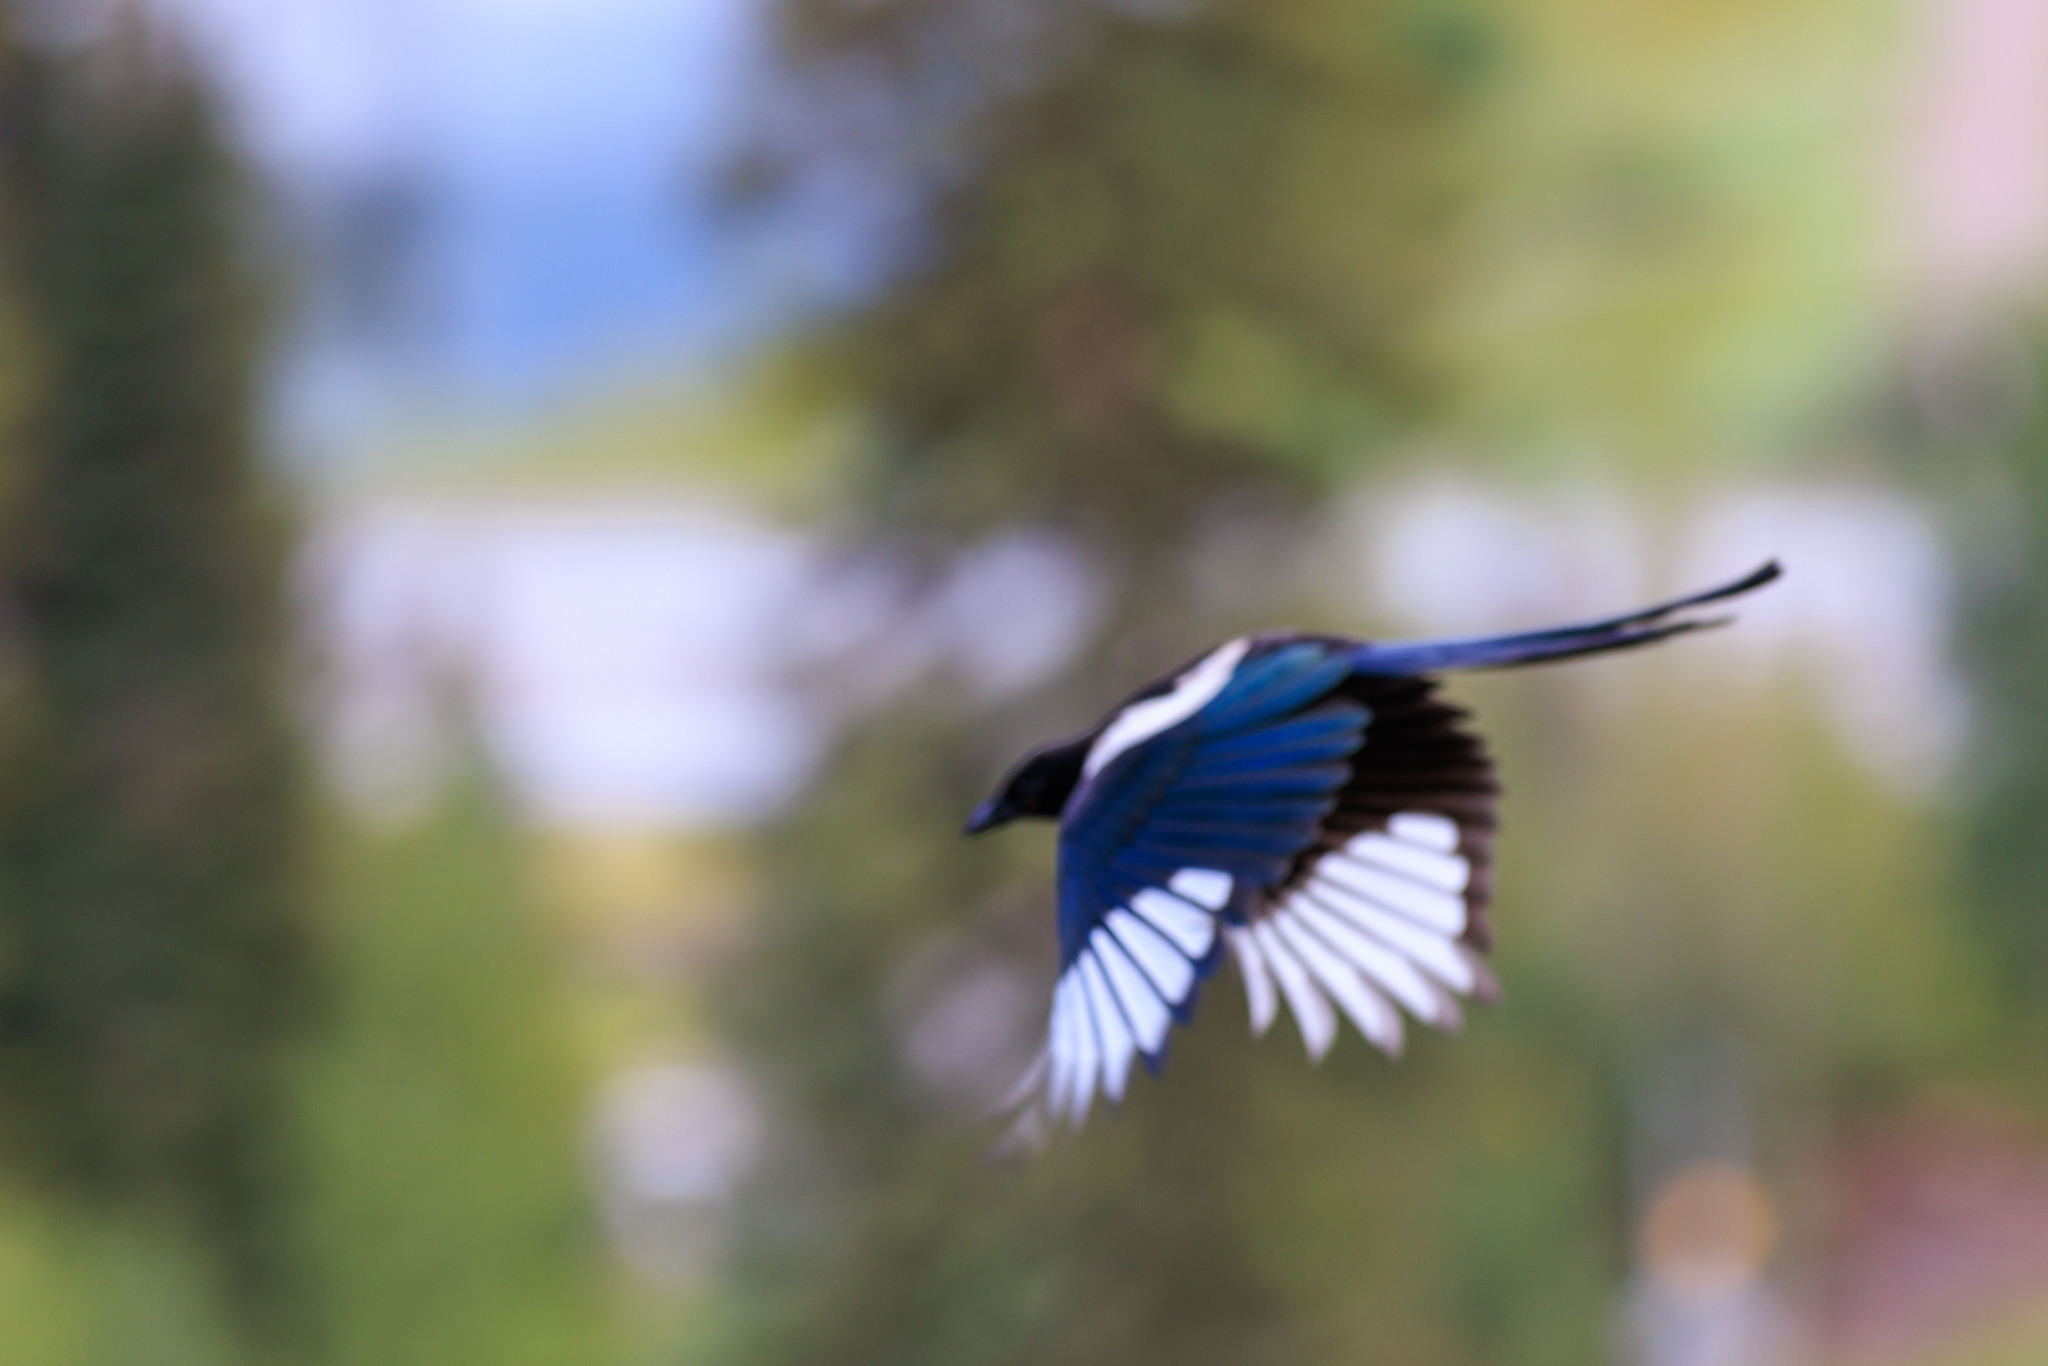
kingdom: Animalia
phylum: Chordata
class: Aves
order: Passeriformes
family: Corvidae
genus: Pica
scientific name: Pica hudsonia
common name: Black-billed magpie
